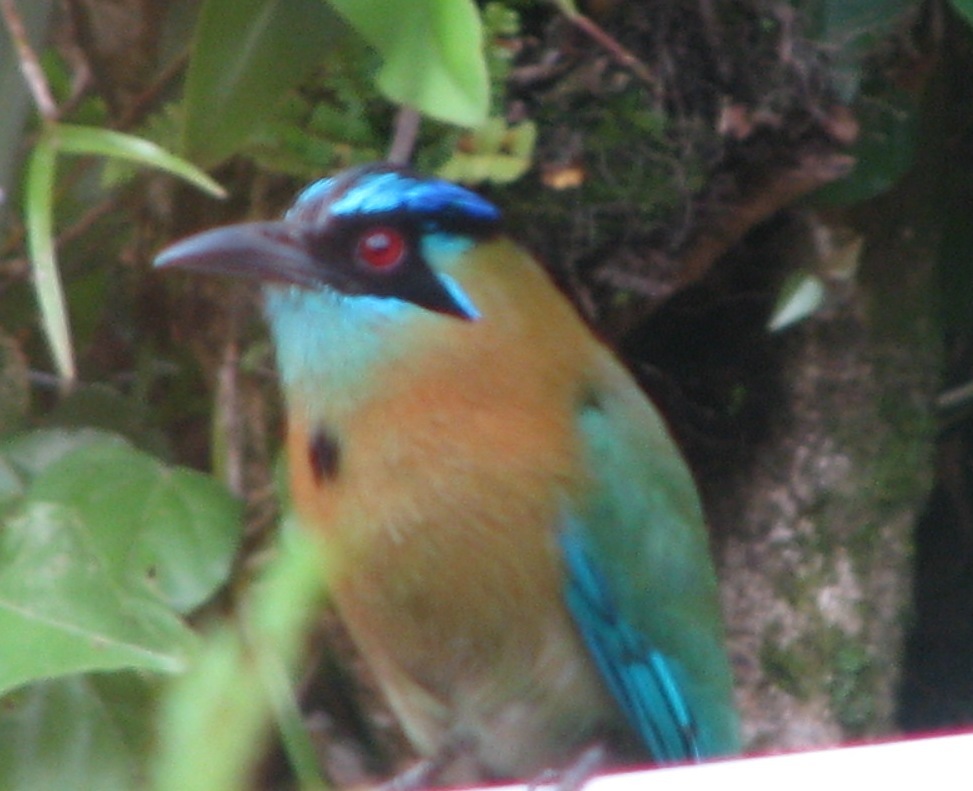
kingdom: Animalia
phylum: Chordata
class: Aves
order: Coraciiformes
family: Momotidae
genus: Momotus
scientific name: Momotus lessonii
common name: Lesson's motmot
